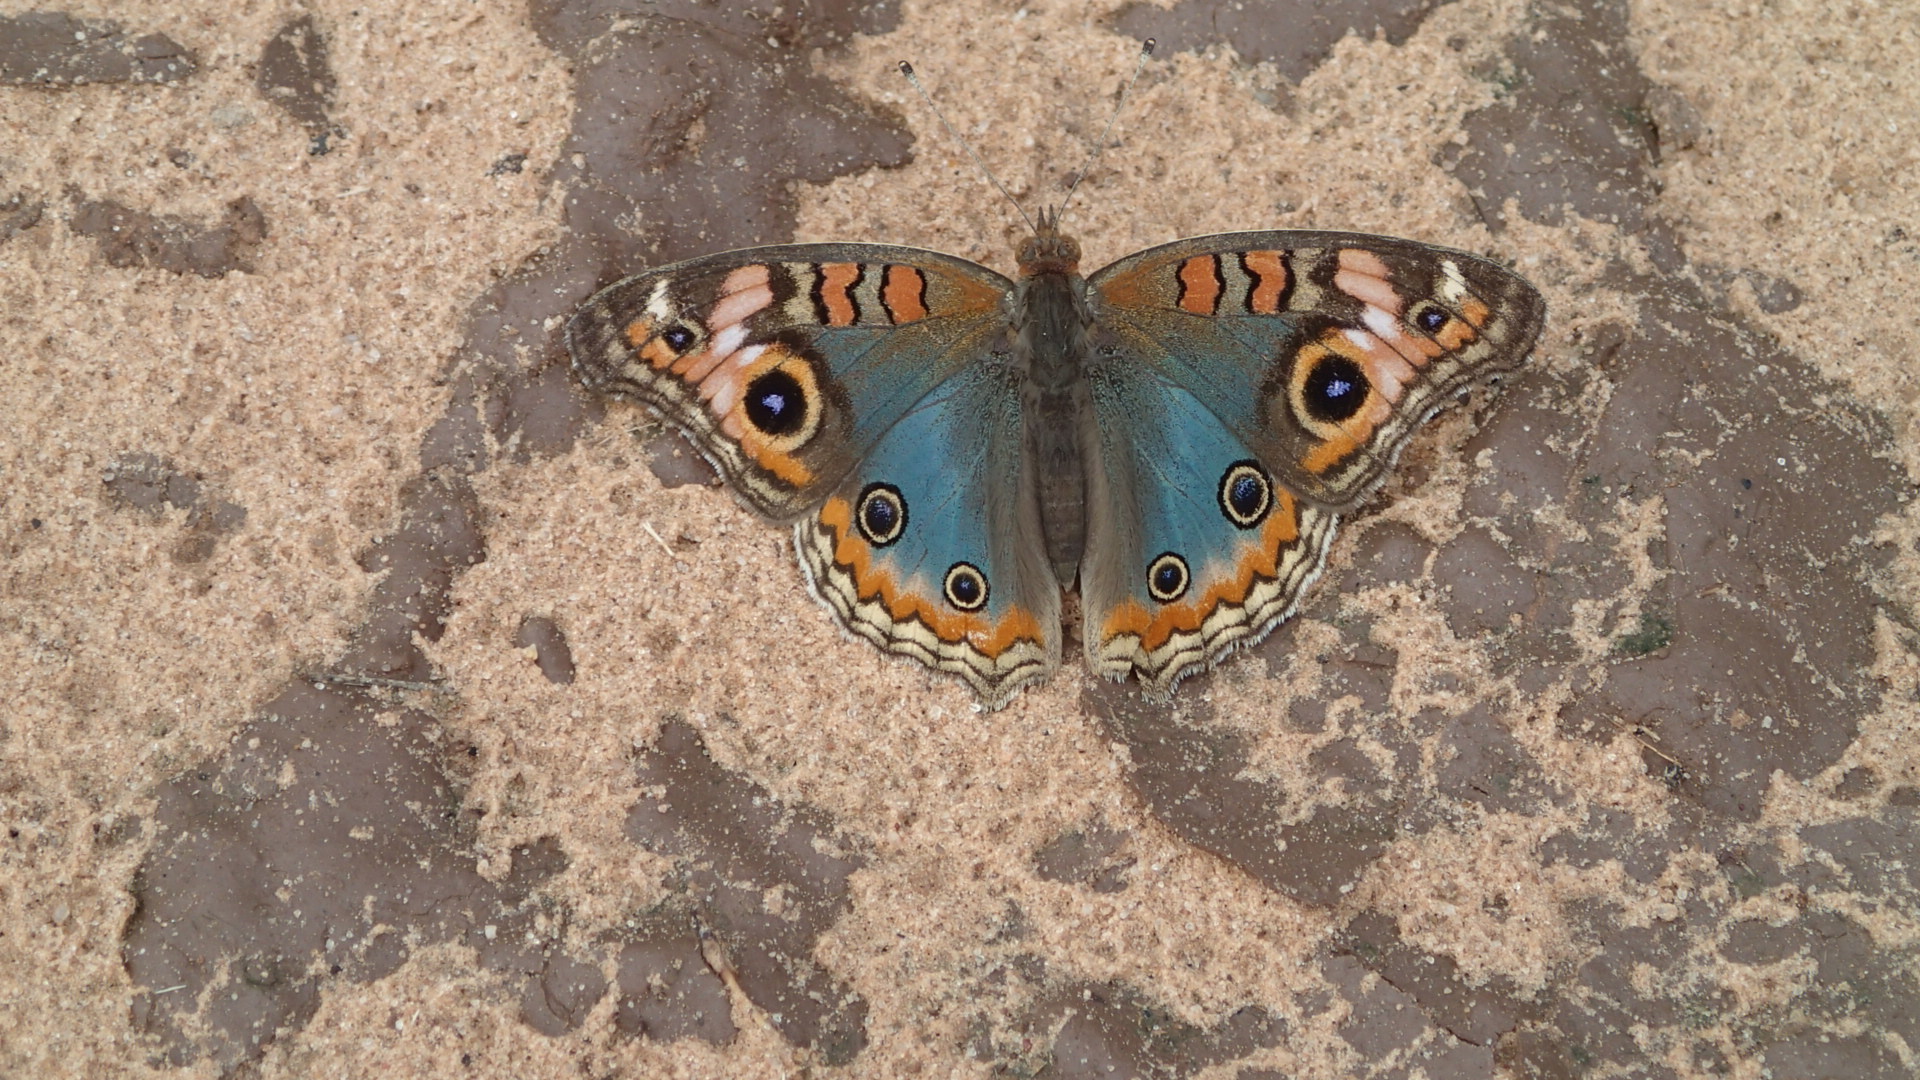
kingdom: Animalia
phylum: Arthropoda
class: Insecta
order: Lepidoptera
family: Nymphalidae
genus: Junonia
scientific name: Junonia evarete
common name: Black mangrove buckeye
